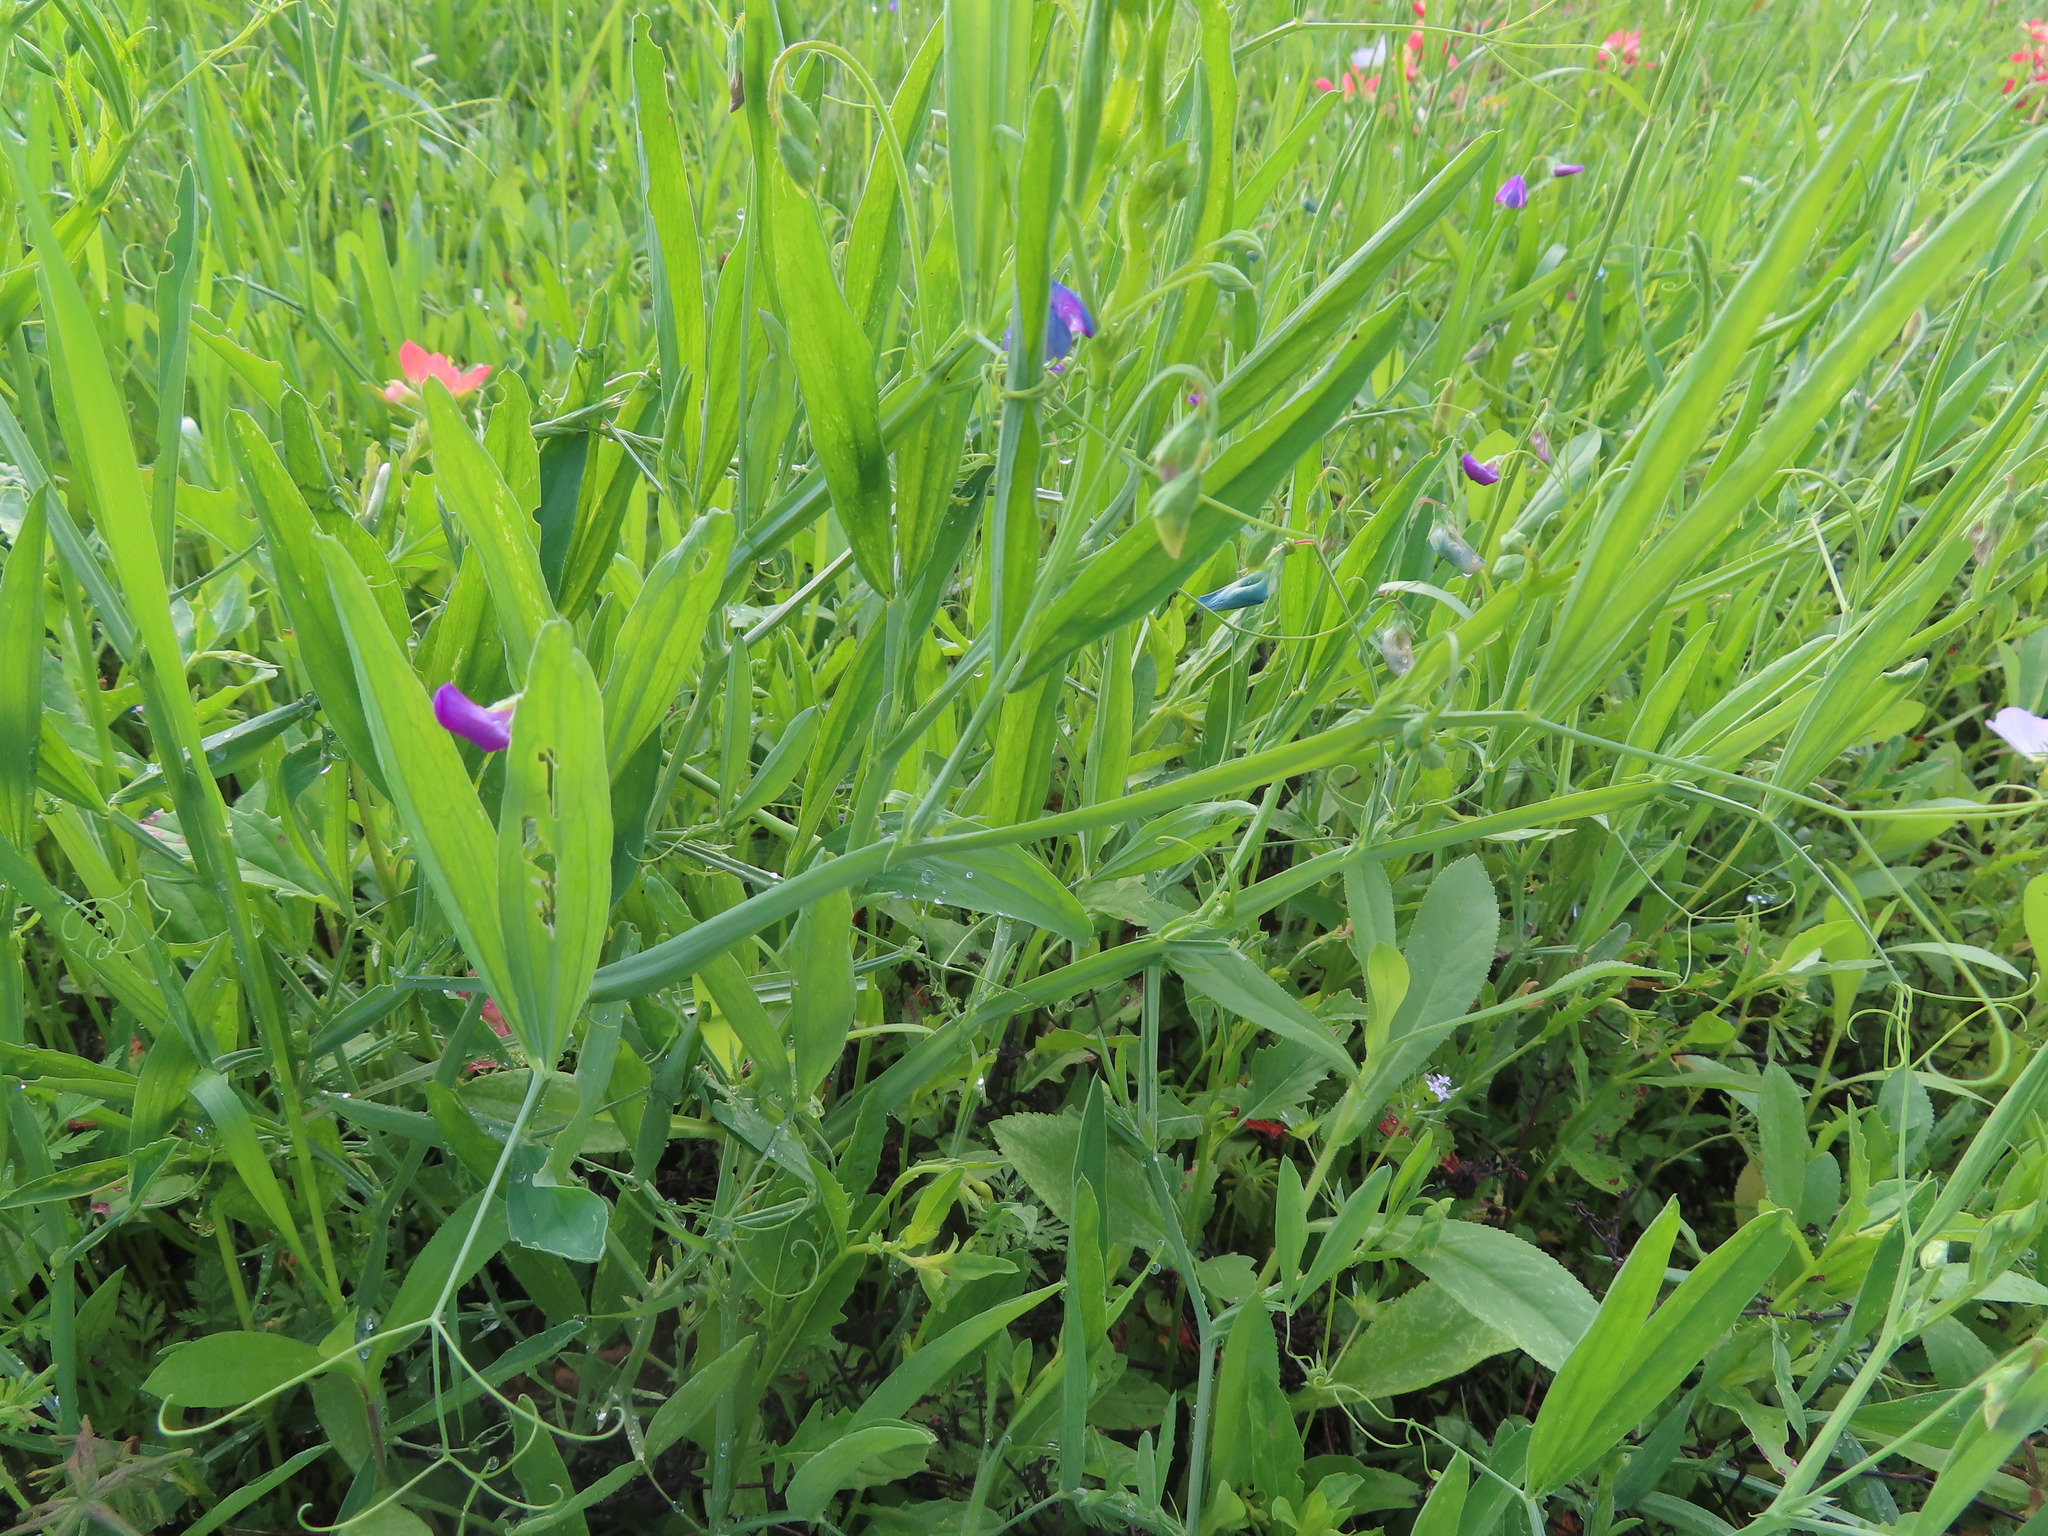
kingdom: Plantae
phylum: Tracheophyta
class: Magnoliopsida
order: Fabales
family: Fabaceae
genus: Lathyrus
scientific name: Lathyrus hirsutus
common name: Hairy vetchling
